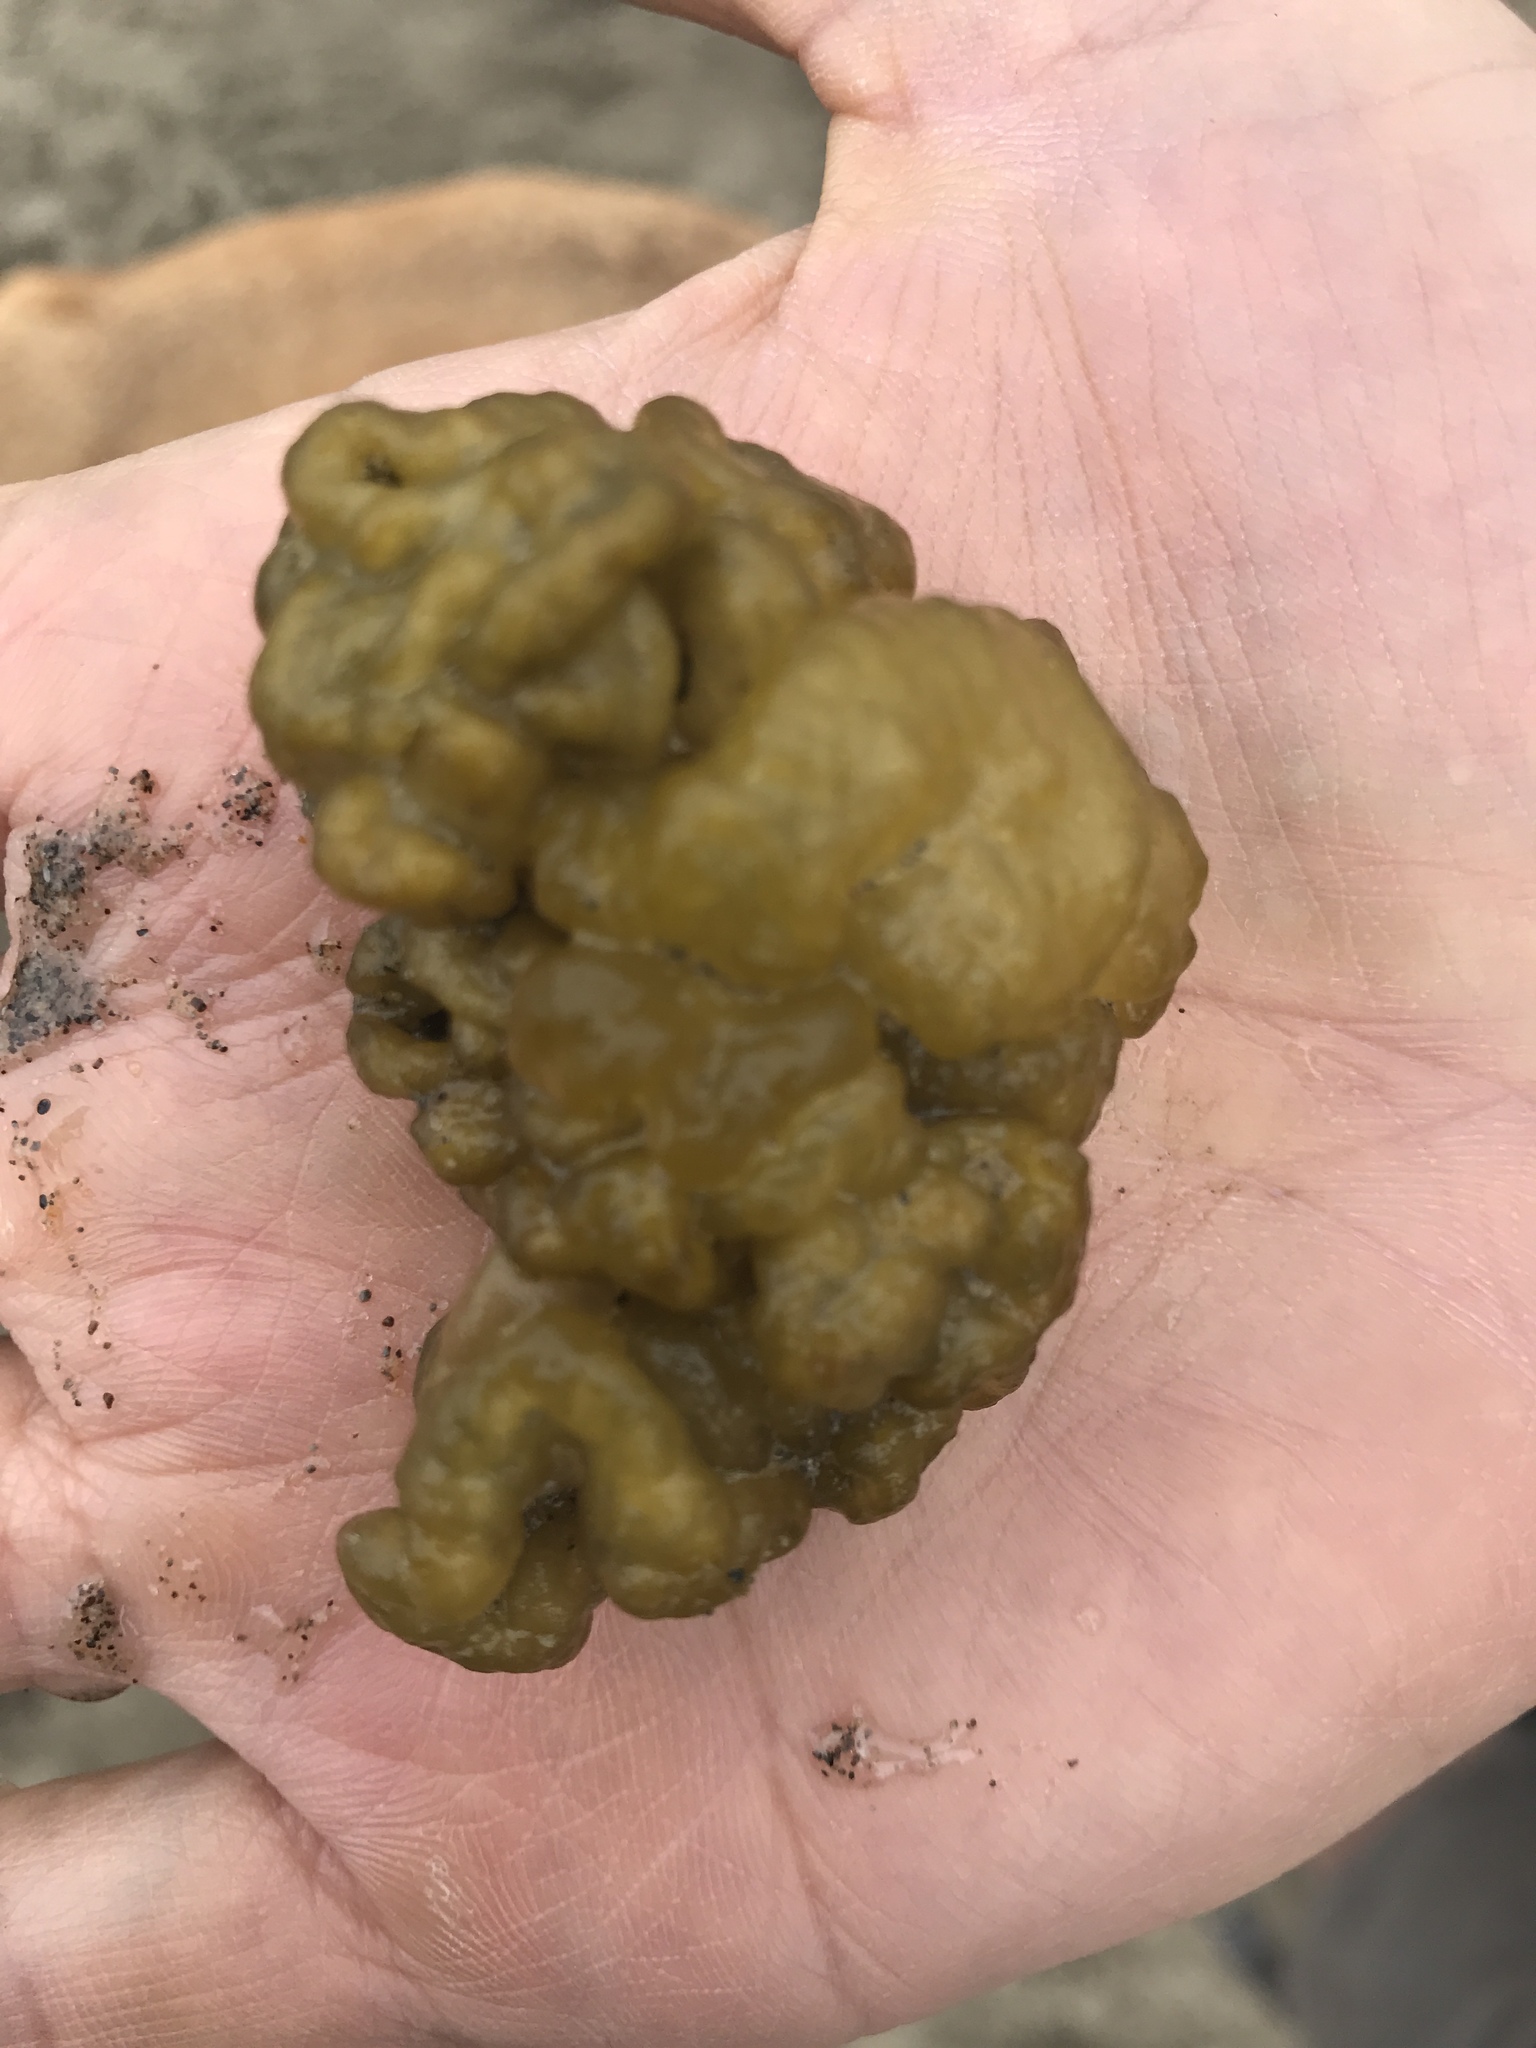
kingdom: Chromista
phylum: Ochrophyta
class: Phaeophyceae
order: Ectocarpales
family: Chordariaceae
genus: Leathesia
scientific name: Leathesia marina
